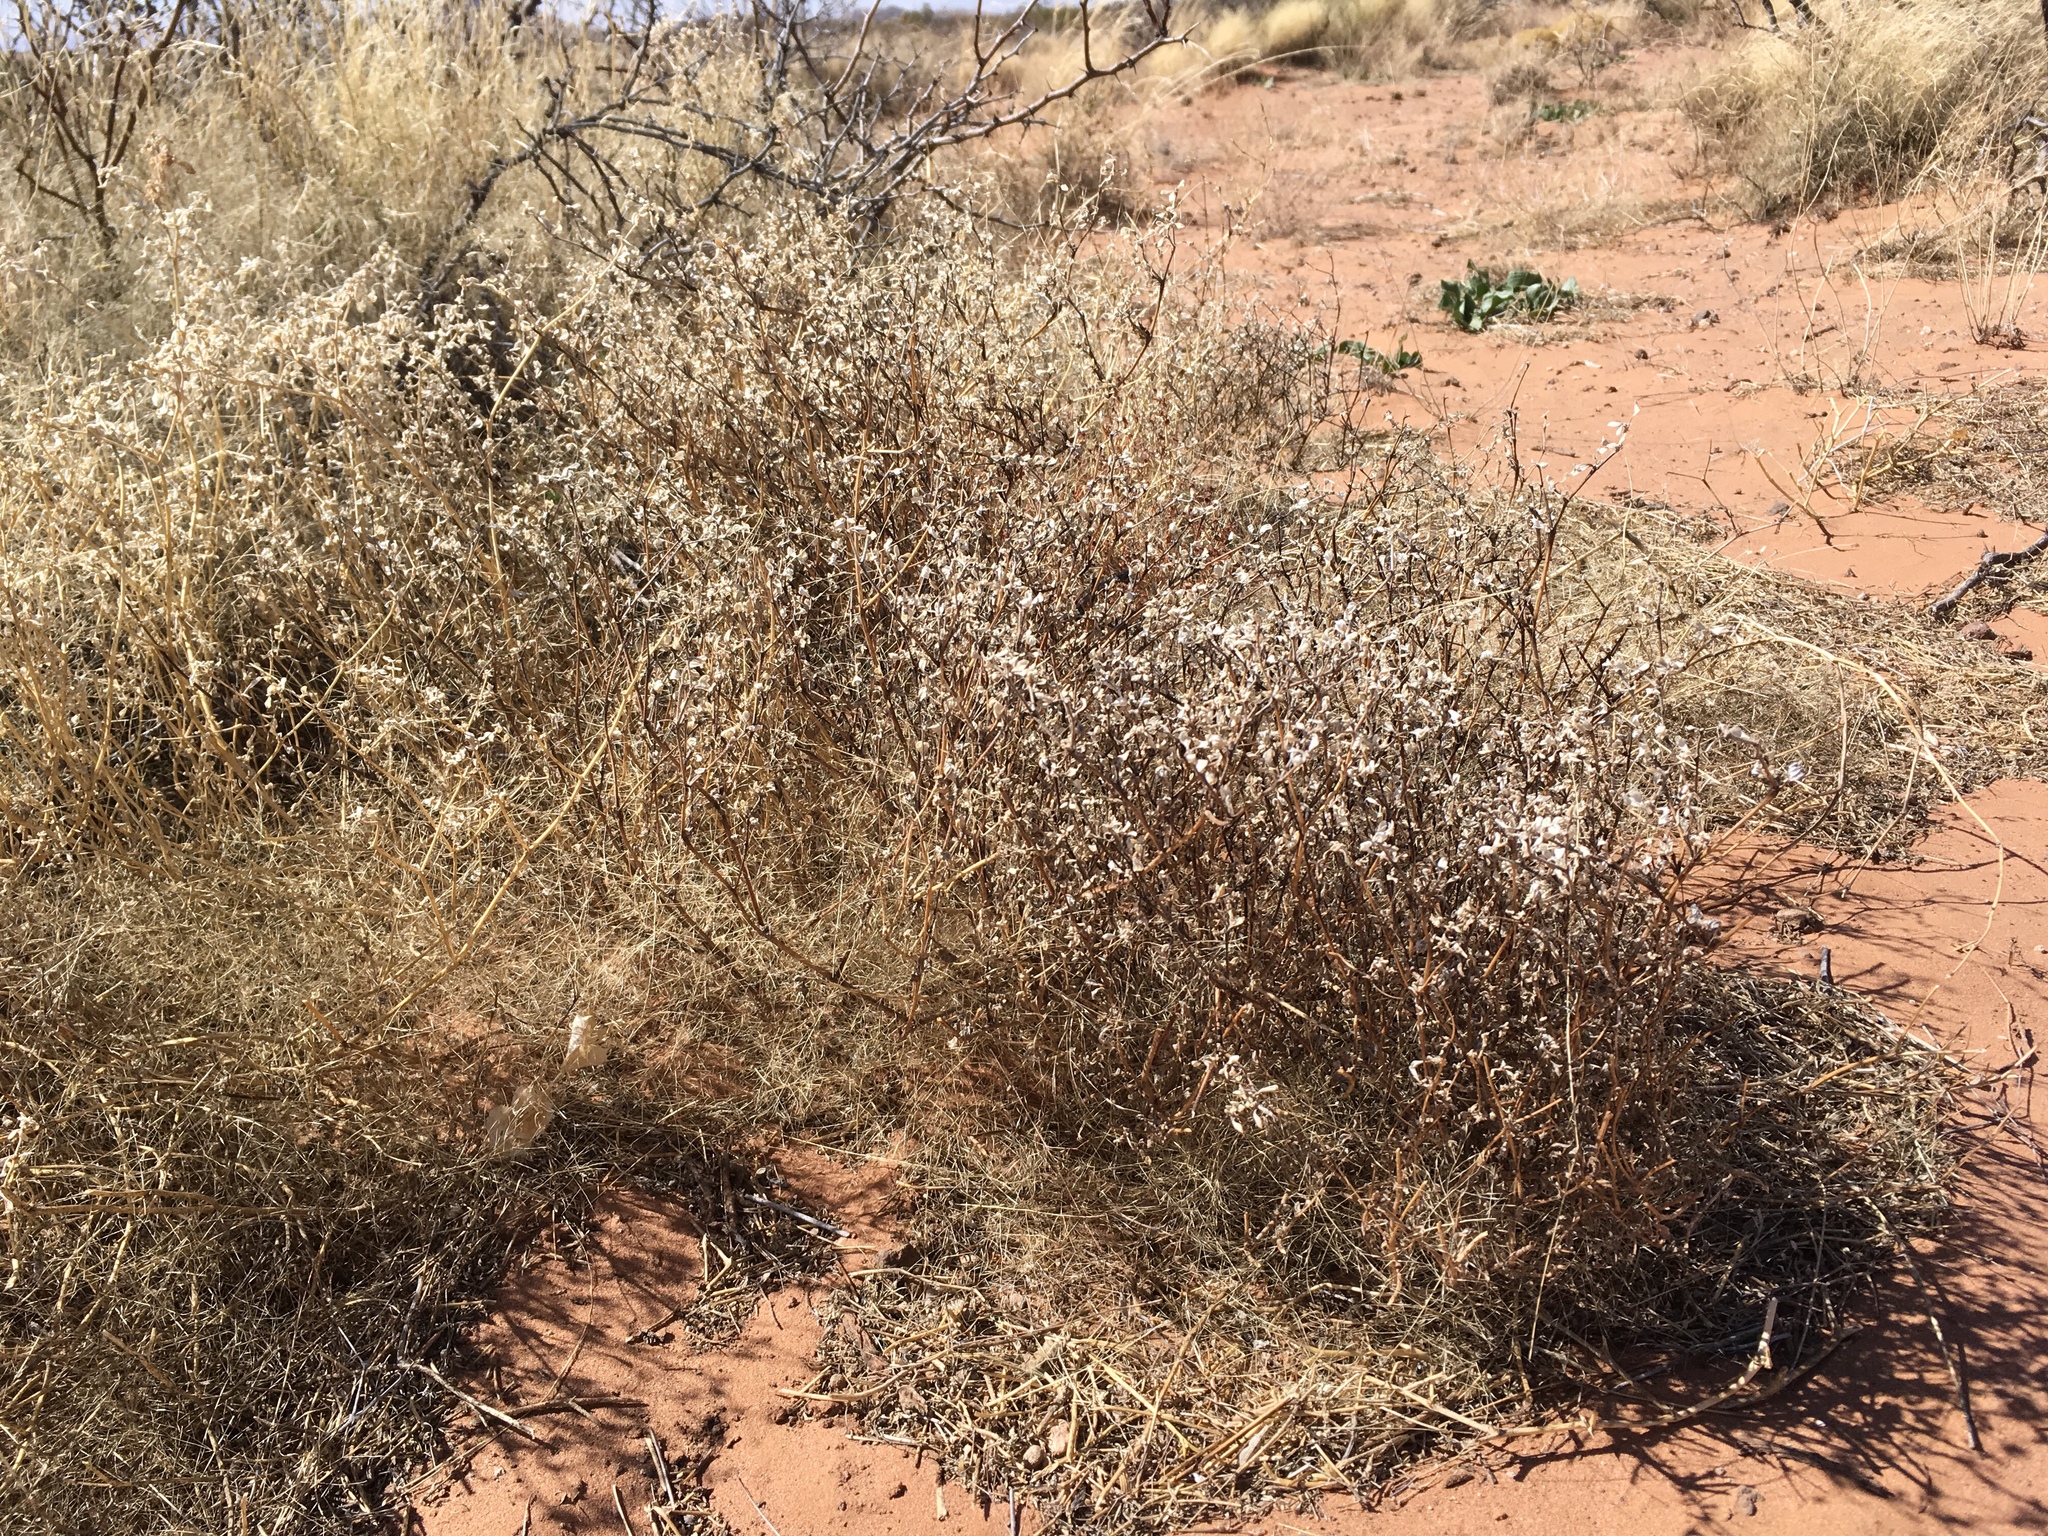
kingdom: Plantae
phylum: Tracheophyta
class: Magnoliopsida
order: Caryophyllales
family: Amaranthaceae
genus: Tidestromia
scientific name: Tidestromia lanuginosa
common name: Woolly tidestromia
